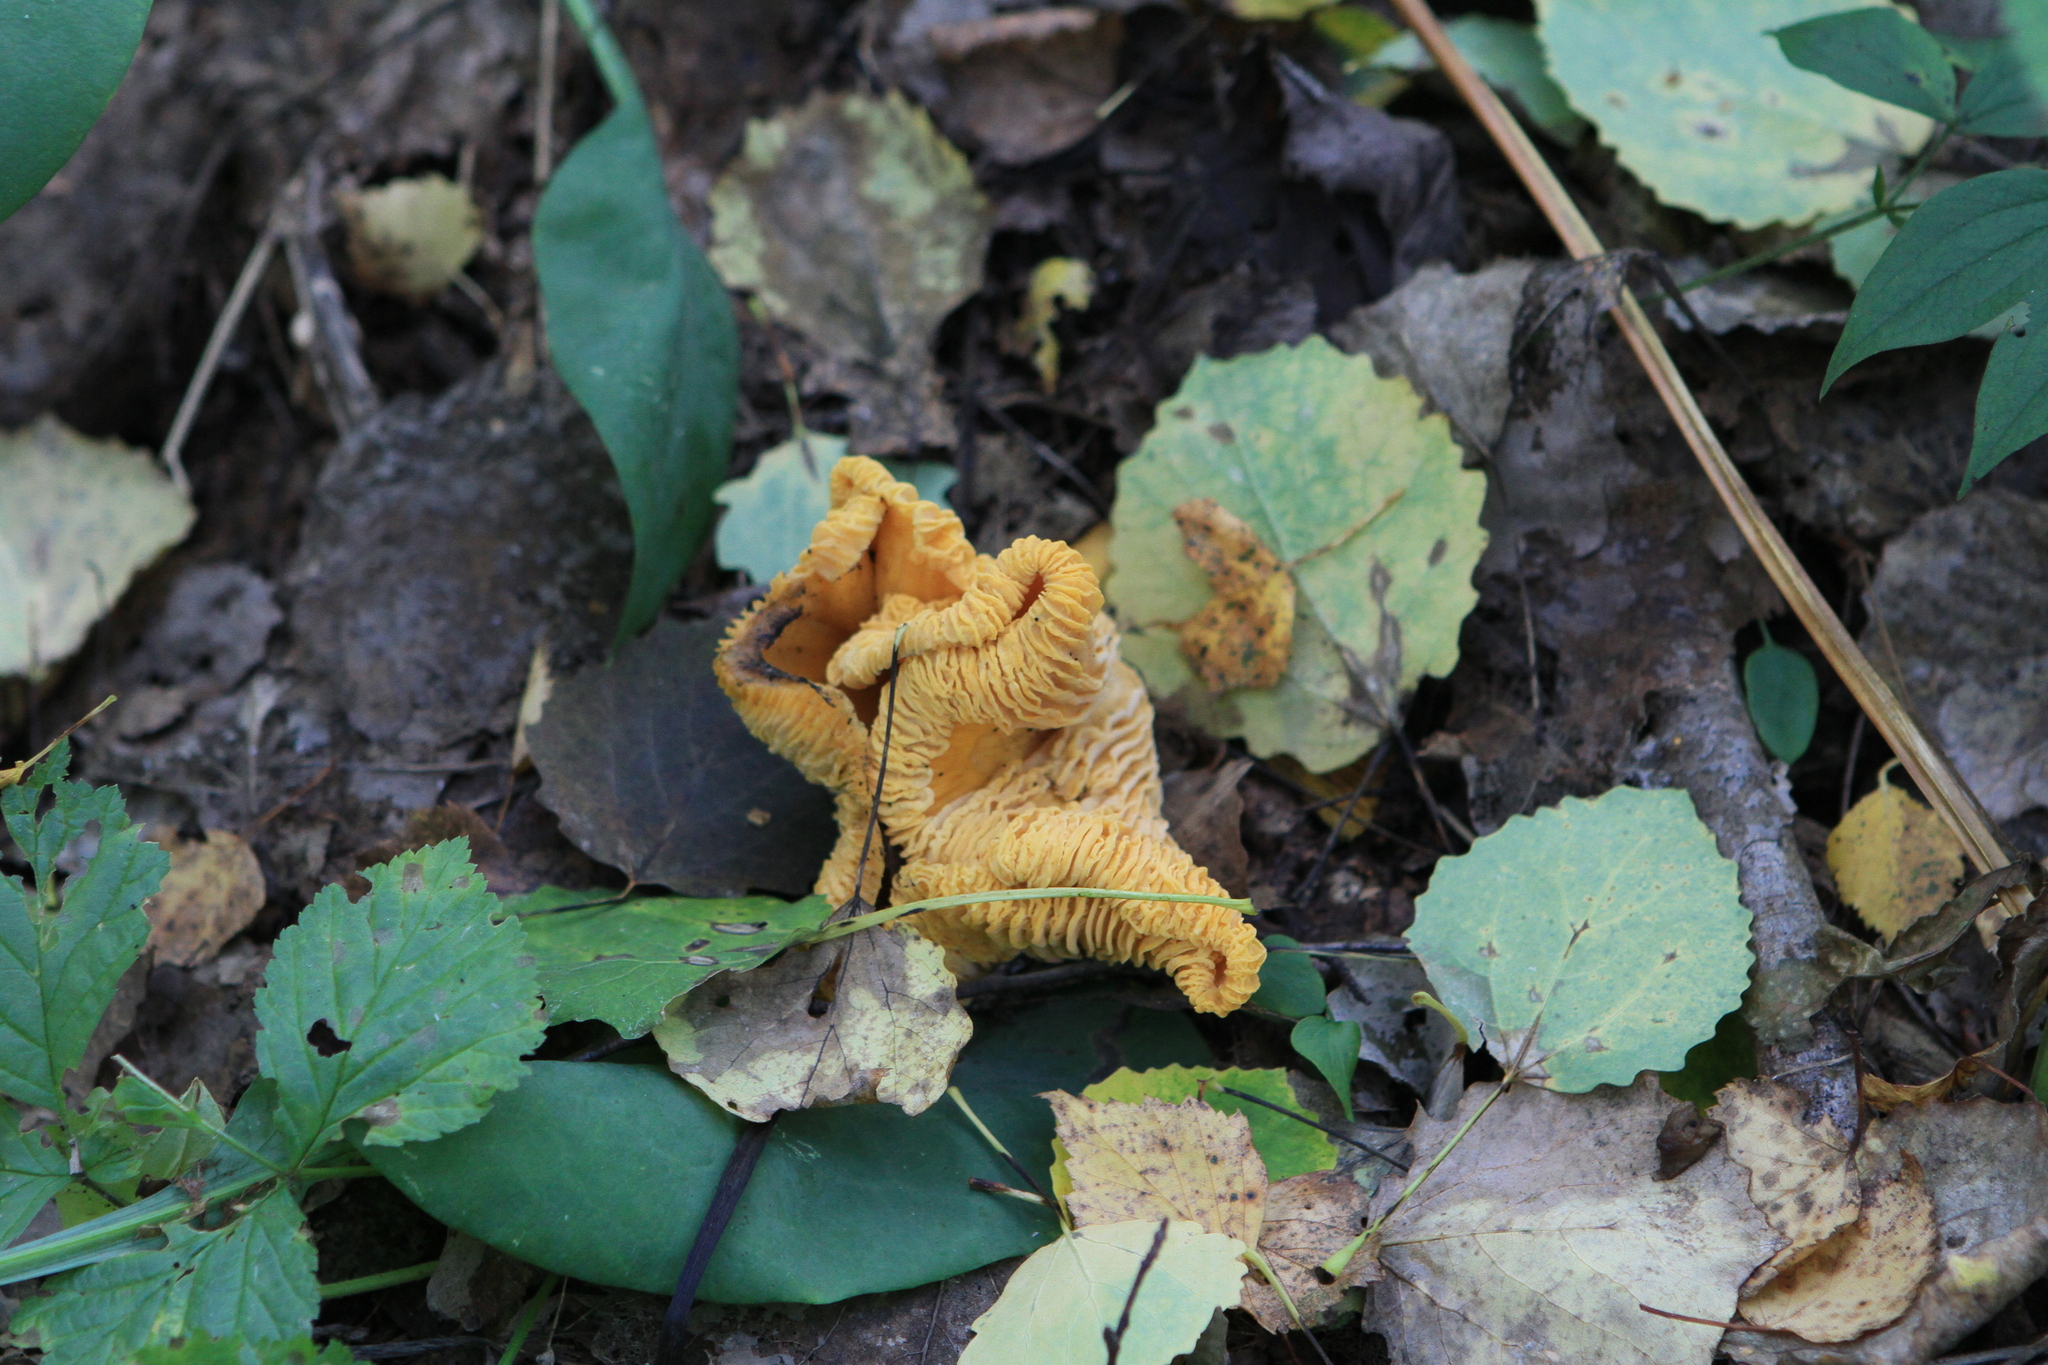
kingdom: Fungi
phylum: Basidiomycota
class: Agaricomycetes
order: Cantharellales
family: Hydnaceae
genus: Cantharellus
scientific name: Cantharellus cibarius
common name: Chanterelle
